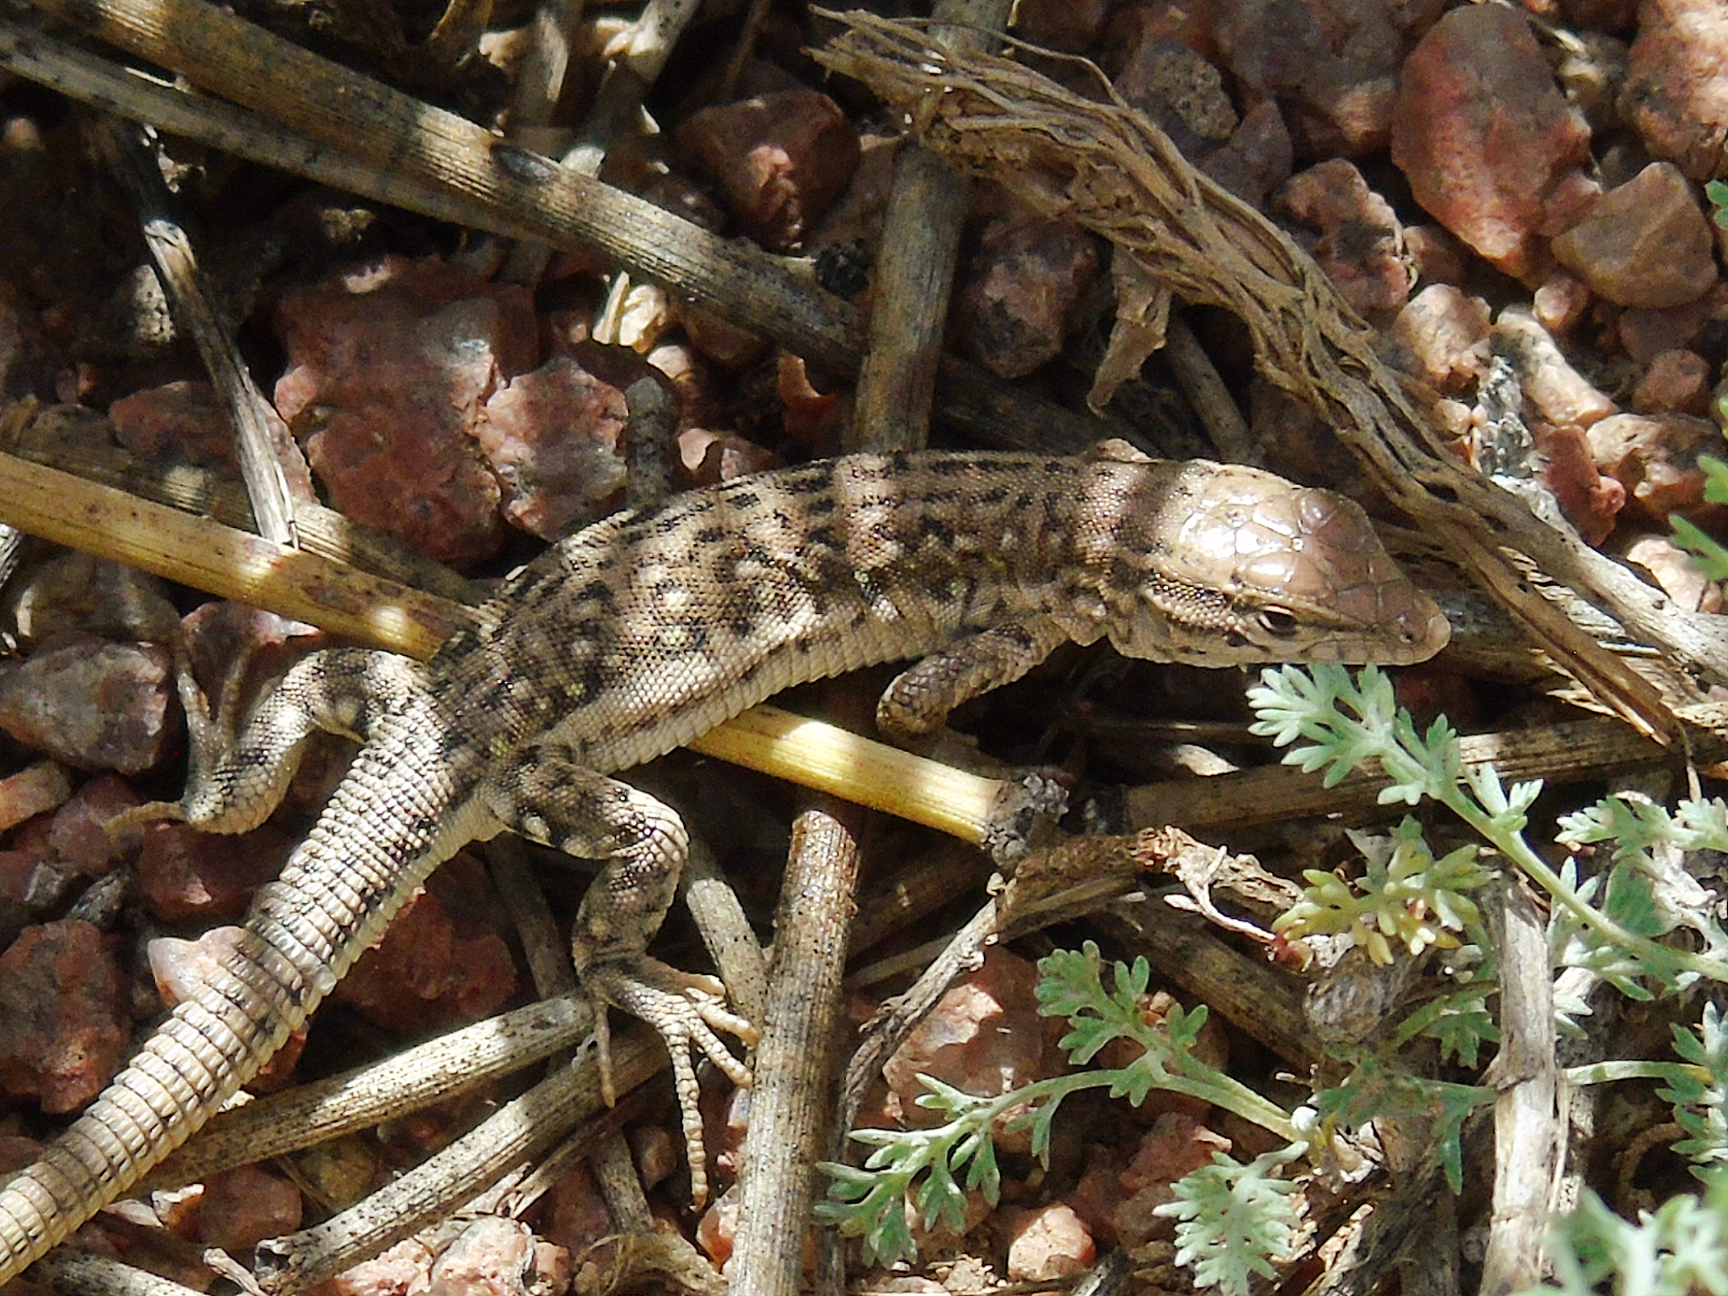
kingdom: Animalia
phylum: Chordata
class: Squamata
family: Lacertidae
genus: Eremias
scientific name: Eremias stummeri
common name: Stummer’s racerunner
